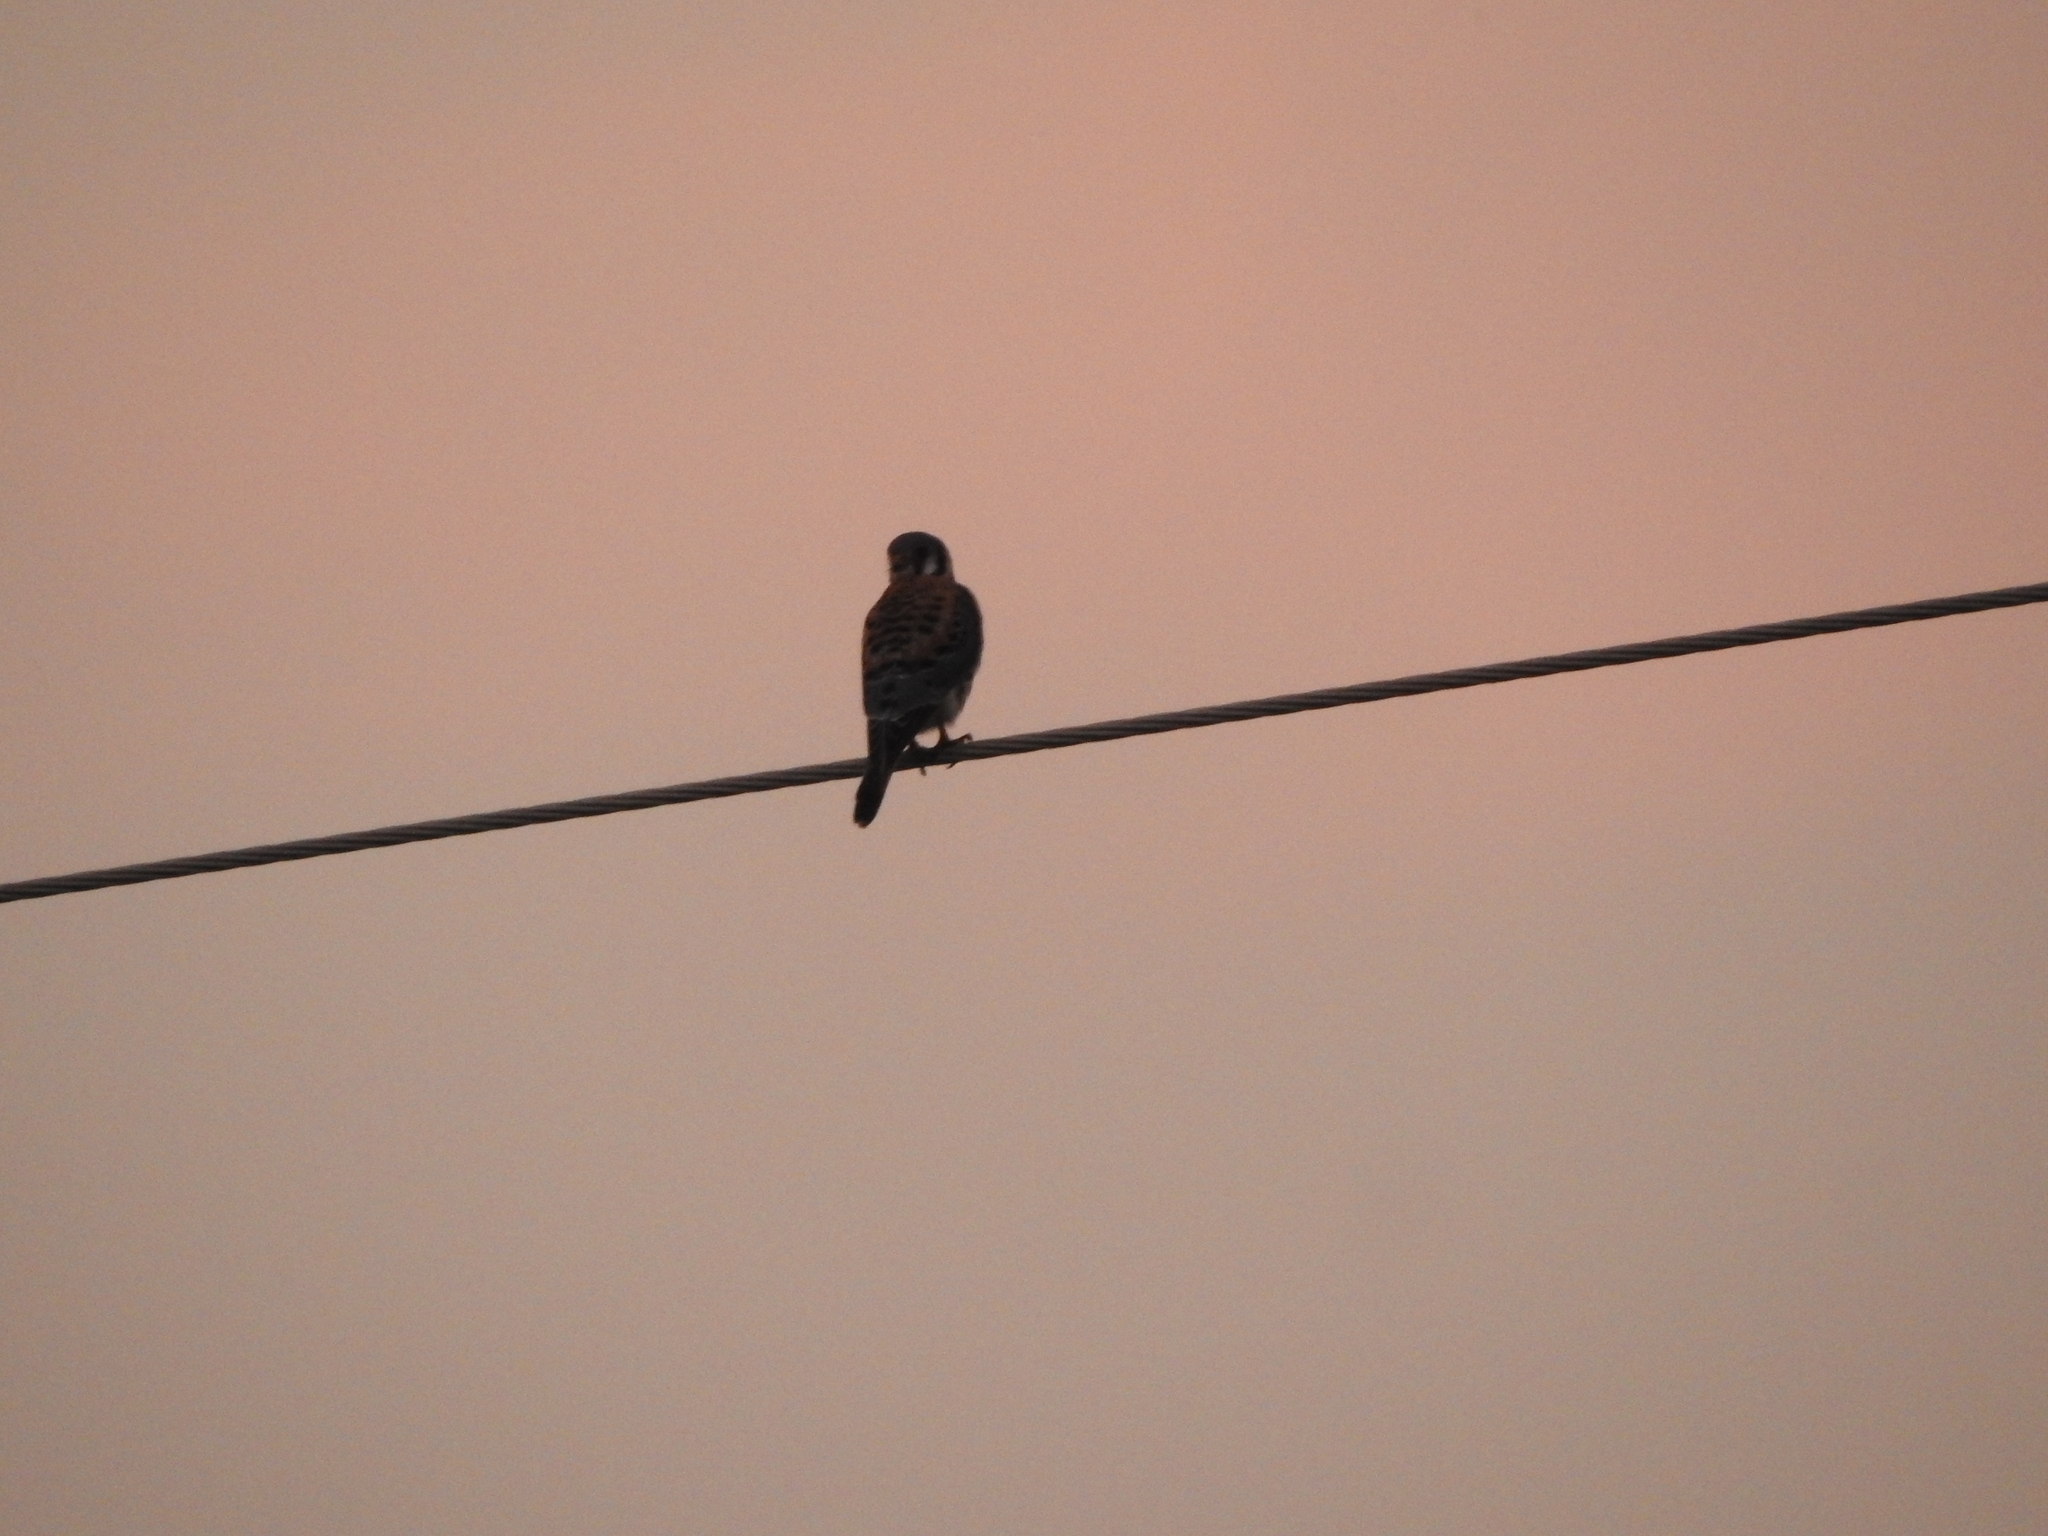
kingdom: Animalia
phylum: Chordata
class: Aves
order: Falconiformes
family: Falconidae
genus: Falco
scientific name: Falco sparverius
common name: American kestrel
